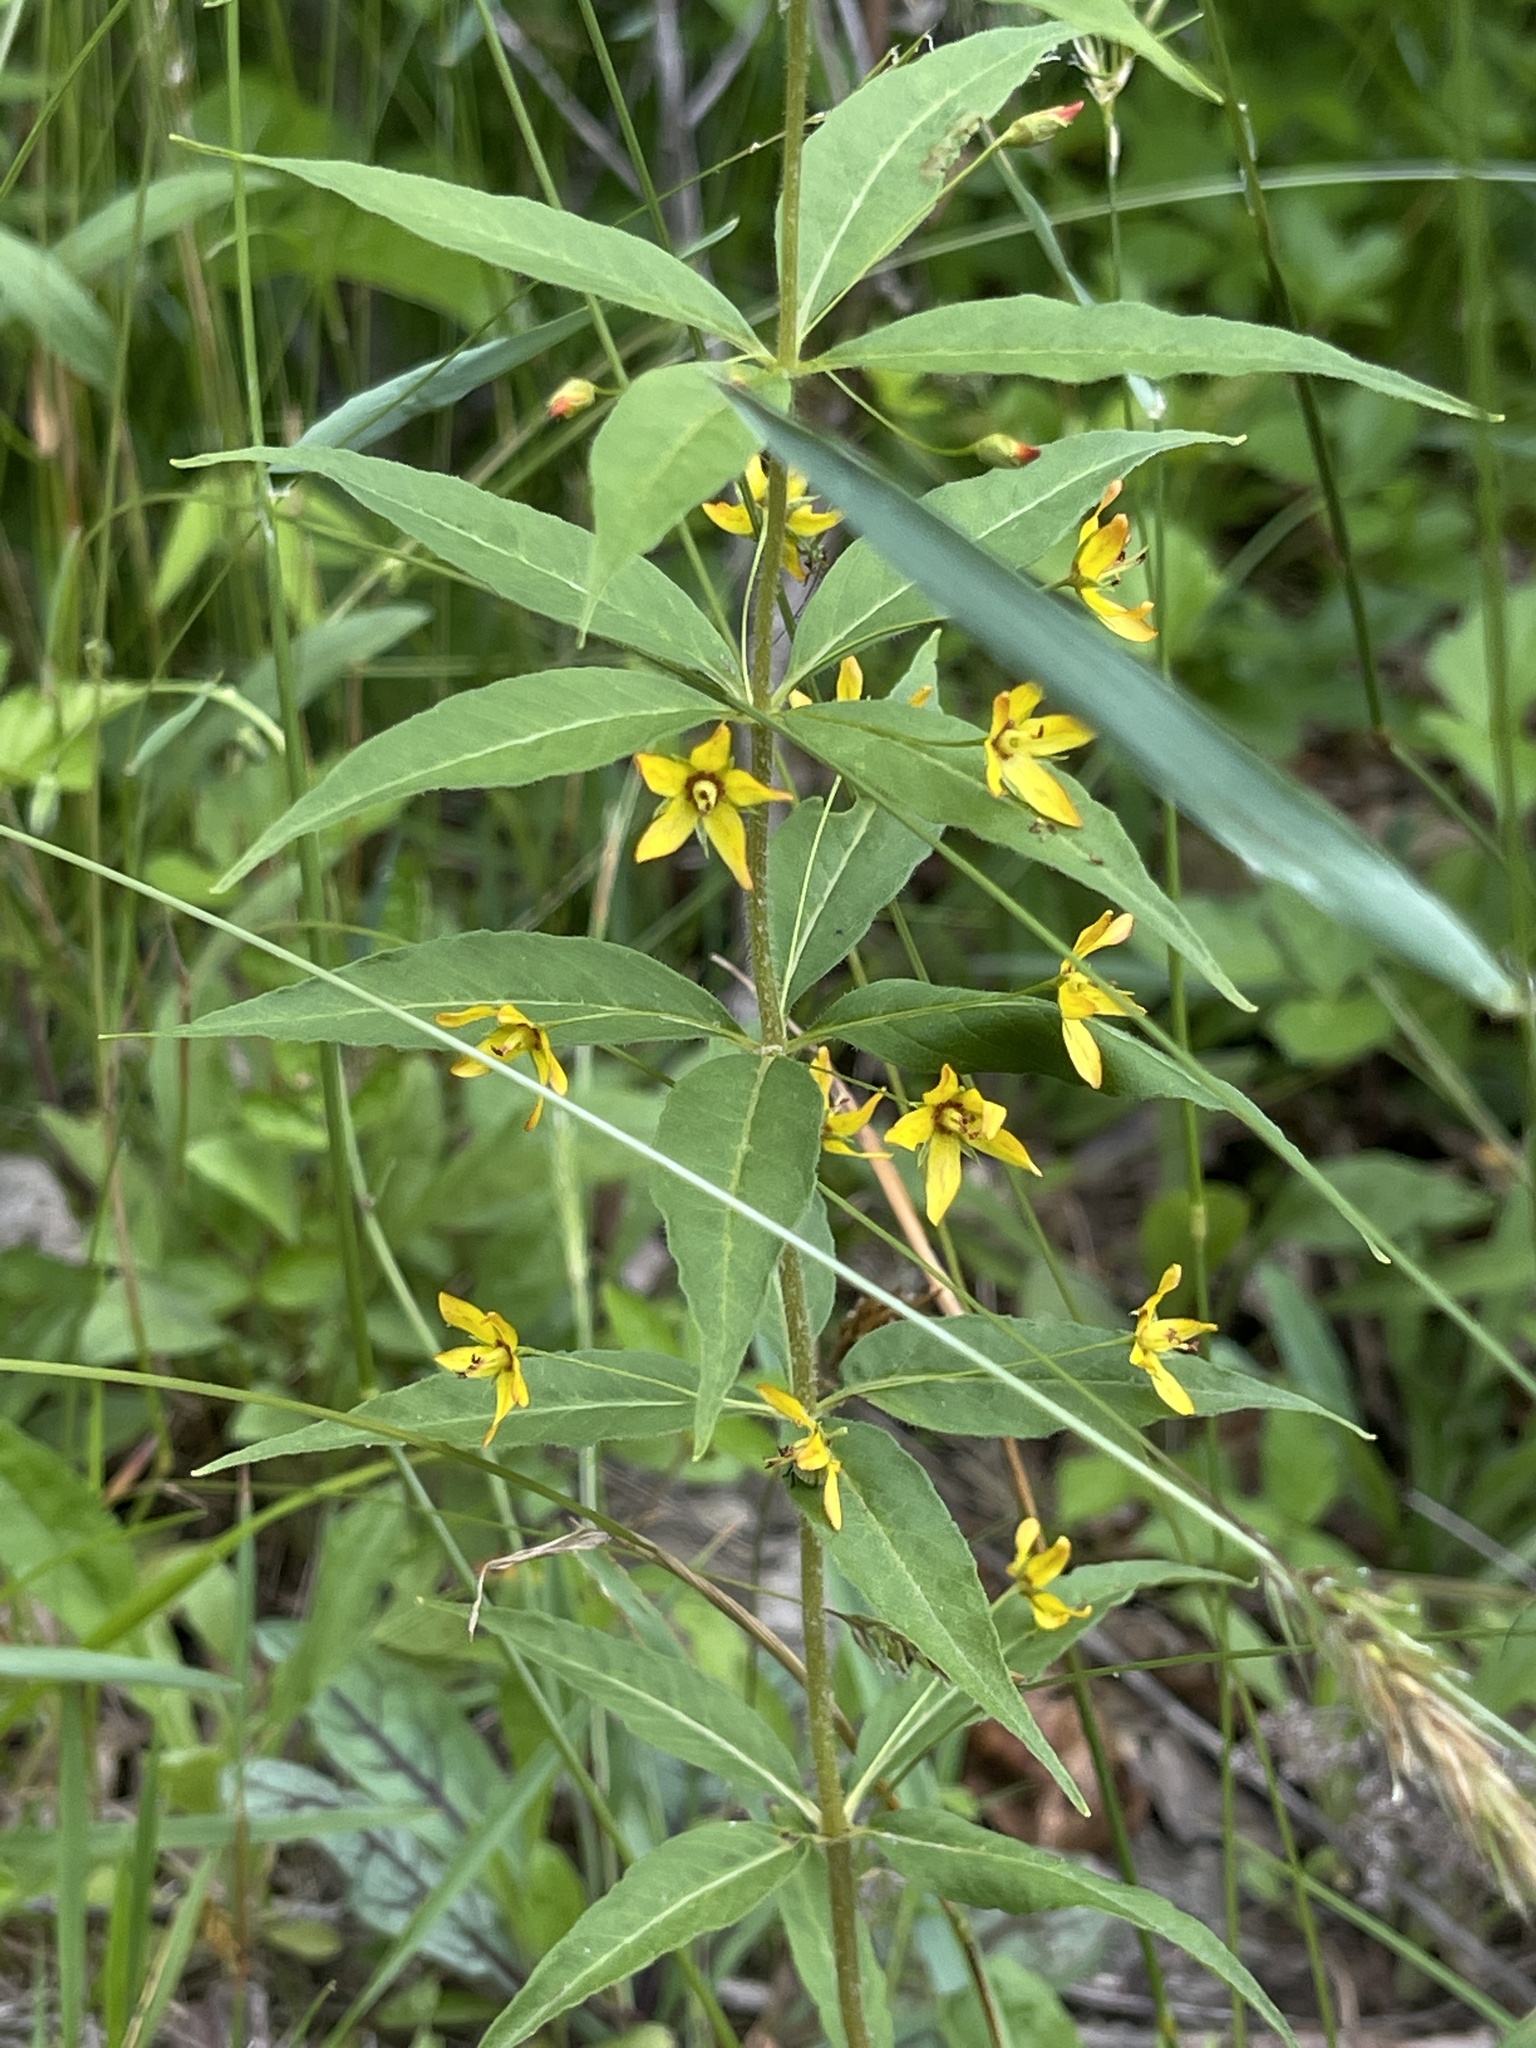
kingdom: Plantae
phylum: Tracheophyta
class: Magnoliopsida
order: Ericales
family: Primulaceae
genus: Lysimachia
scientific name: Lysimachia quadrifolia
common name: Whorled loosestrife
